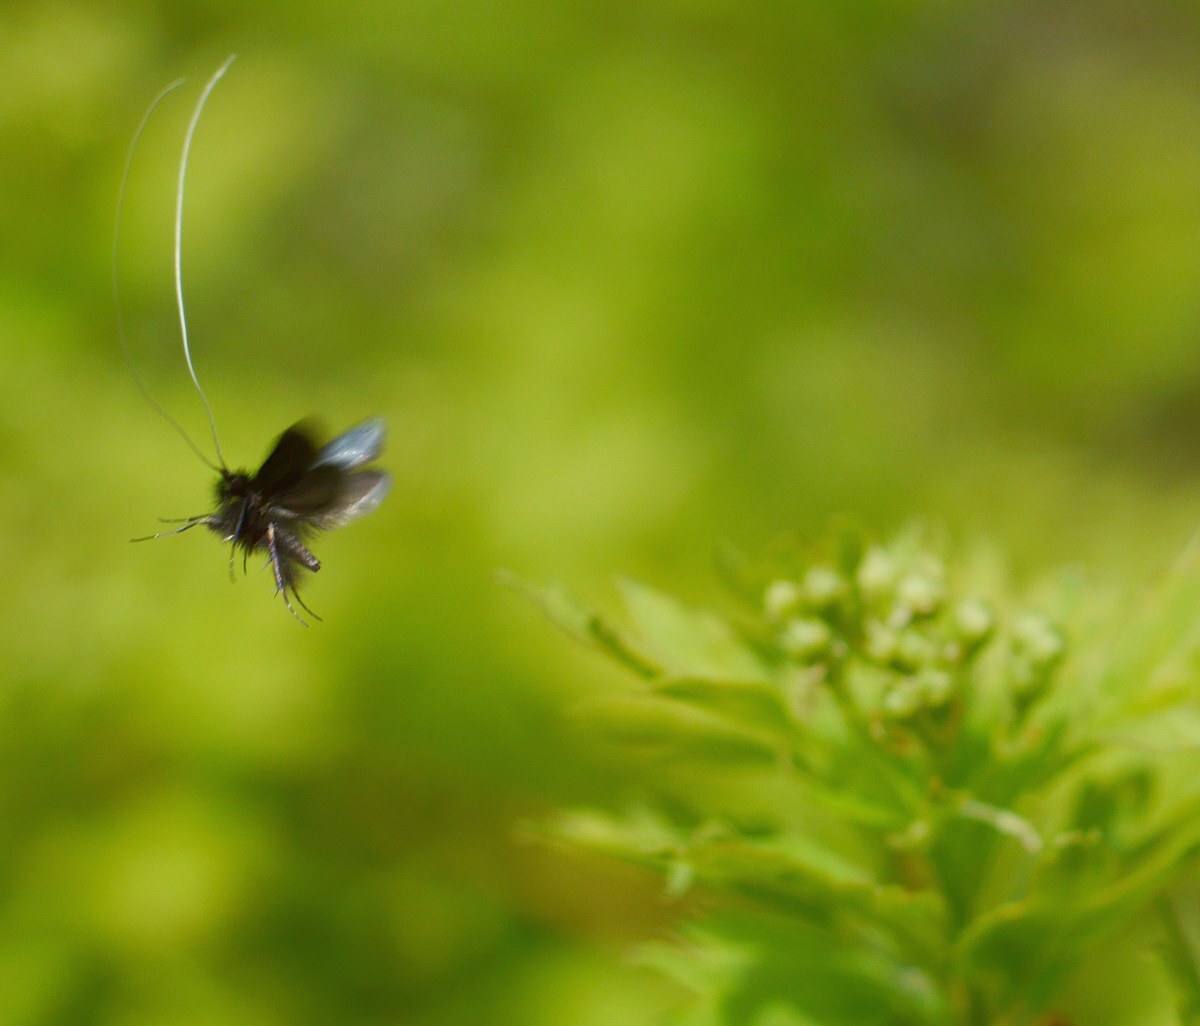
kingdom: Animalia
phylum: Arthropoda
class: Insecta
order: Lepidoptera
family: Adelidae
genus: Adela
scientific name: Adela viridella
